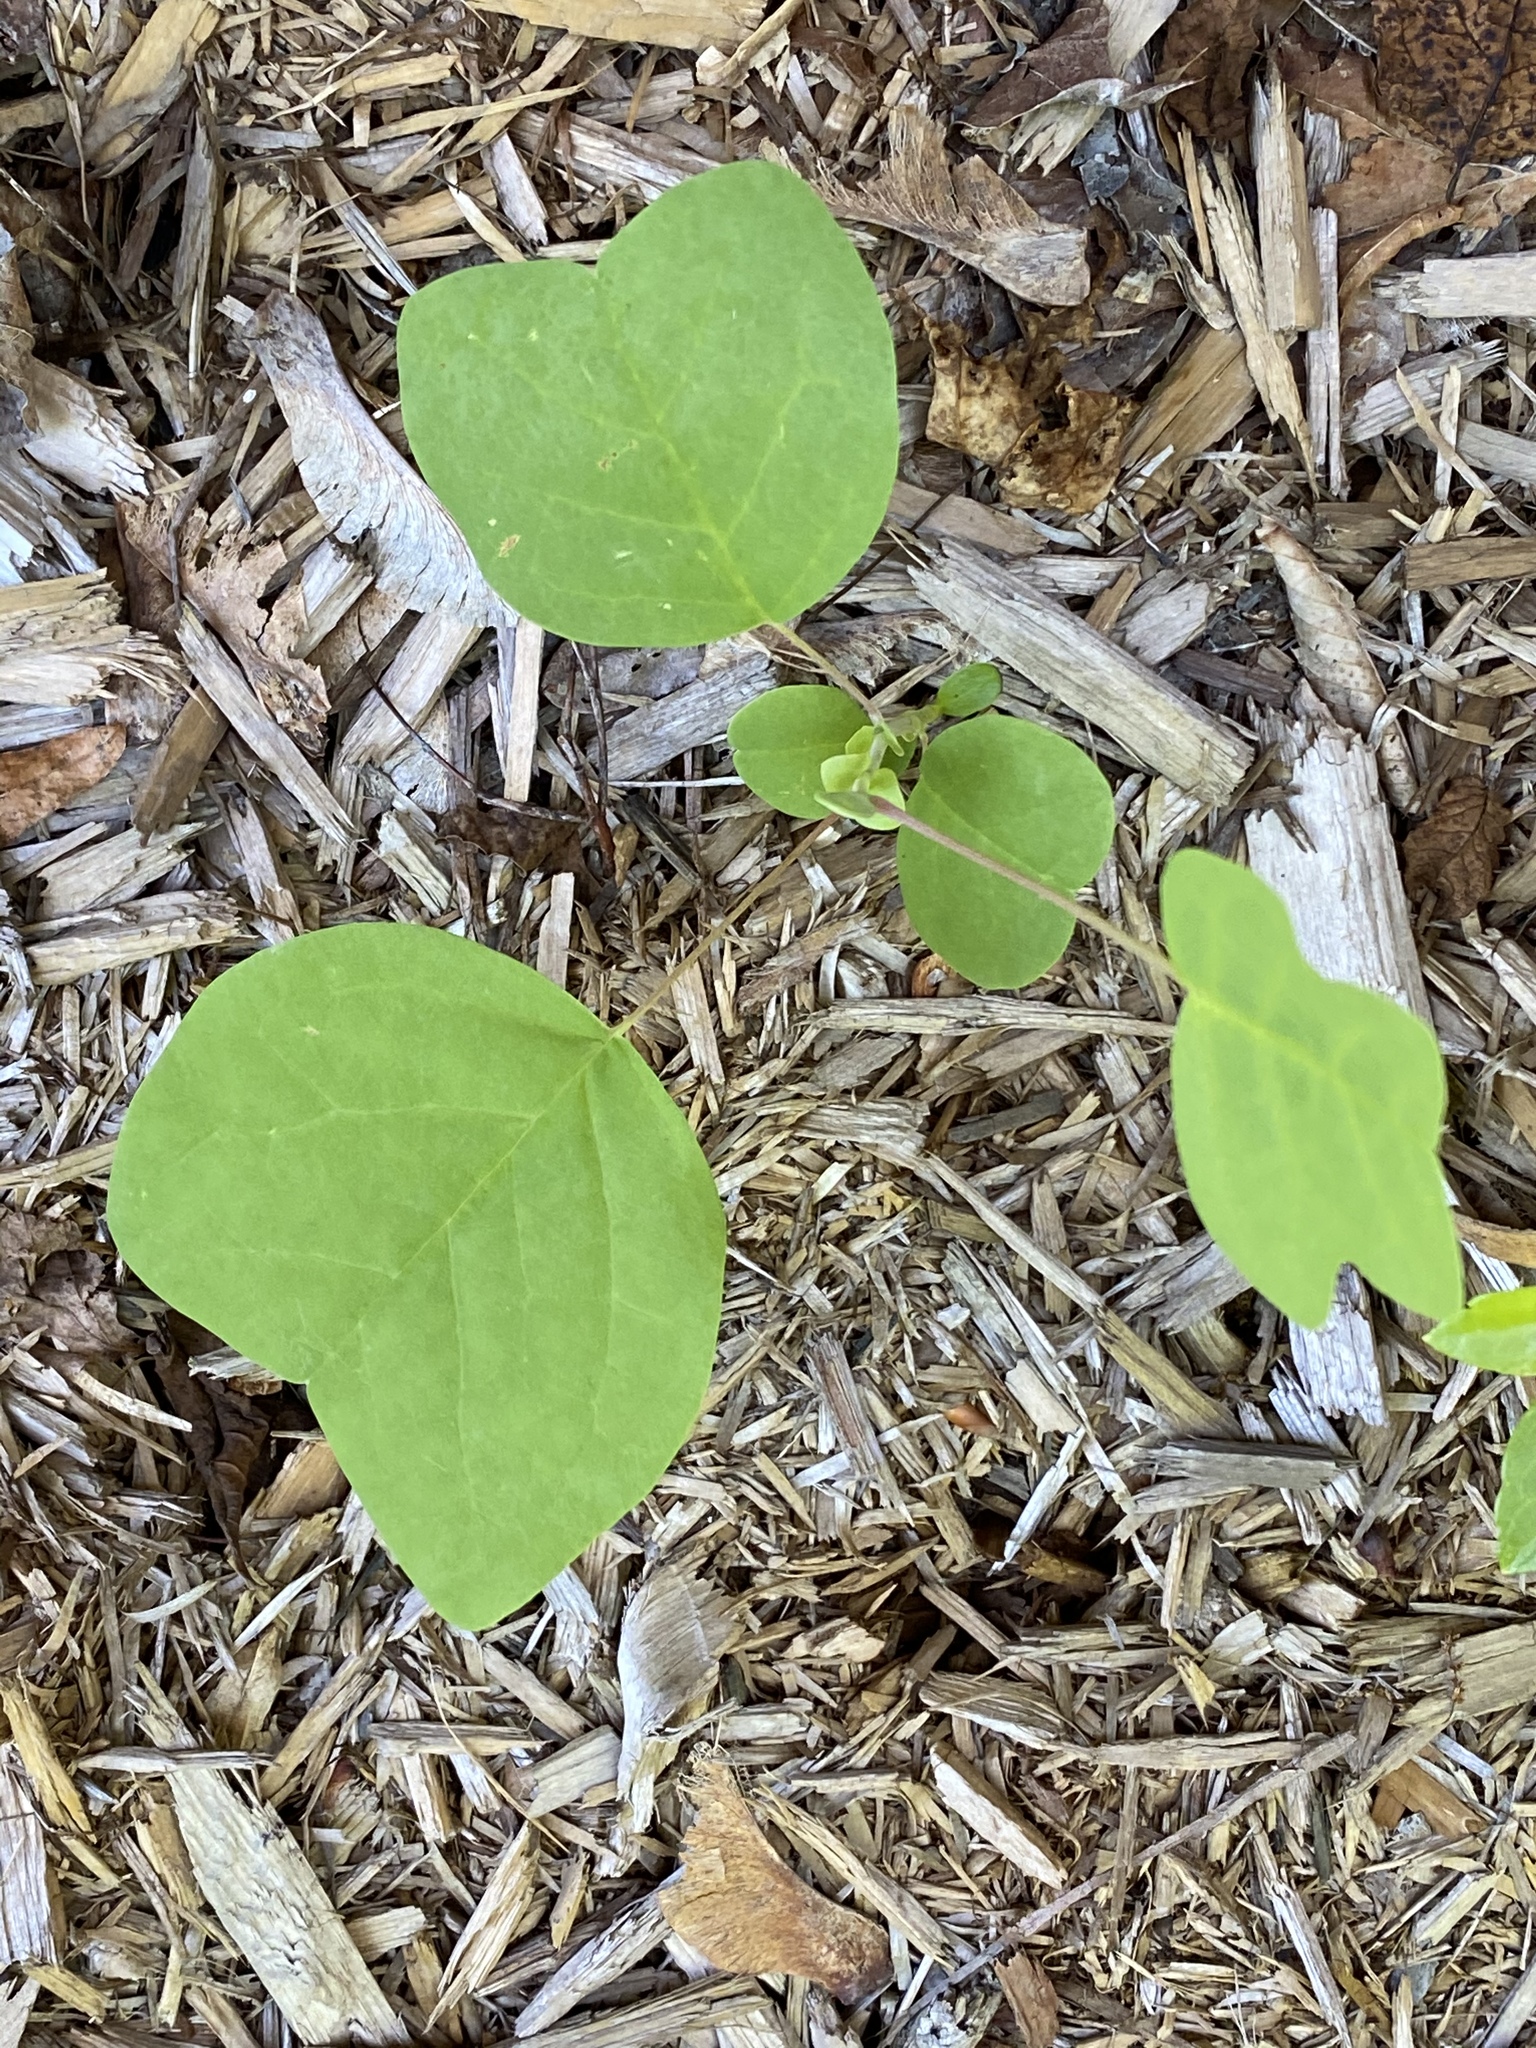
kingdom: Plantae
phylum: Tracheophyta
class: Magnoliopsida
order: Magnoliales
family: Magnoliaceae
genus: Liriodendron
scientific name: Liriodendron tulipifera
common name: Tulip tree
